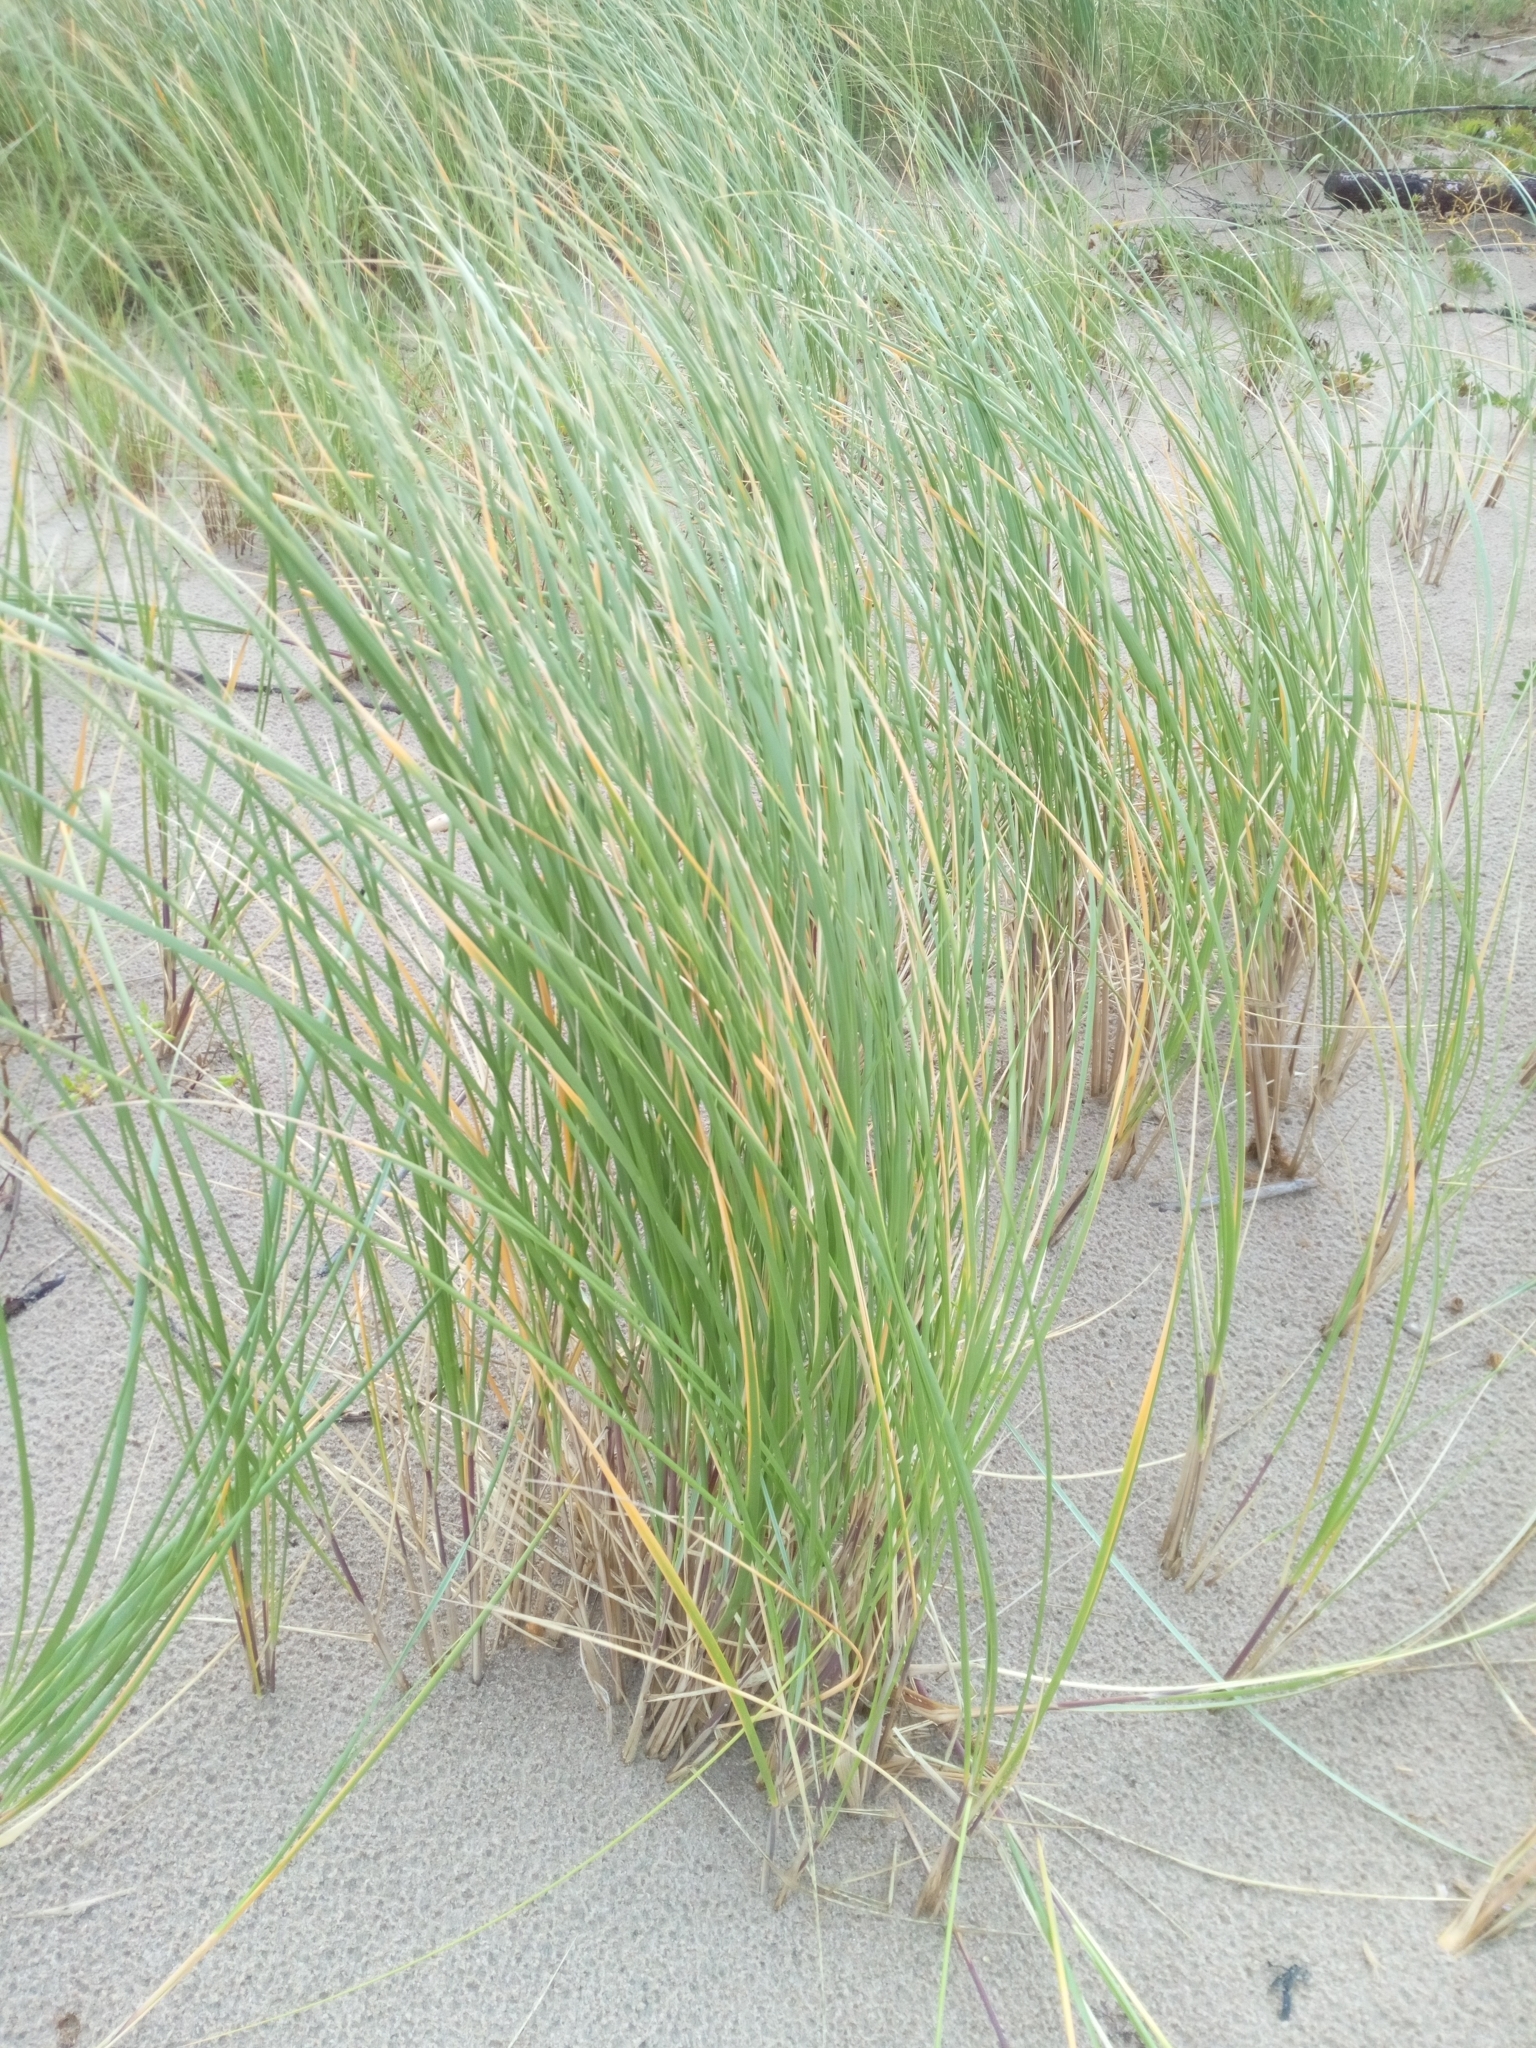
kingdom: Plantae
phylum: Tracheophyta
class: Liliopsida
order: Poales
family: Poaceae
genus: Calamagrostis
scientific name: Calamagrostis arenaria
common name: European beachgrass
